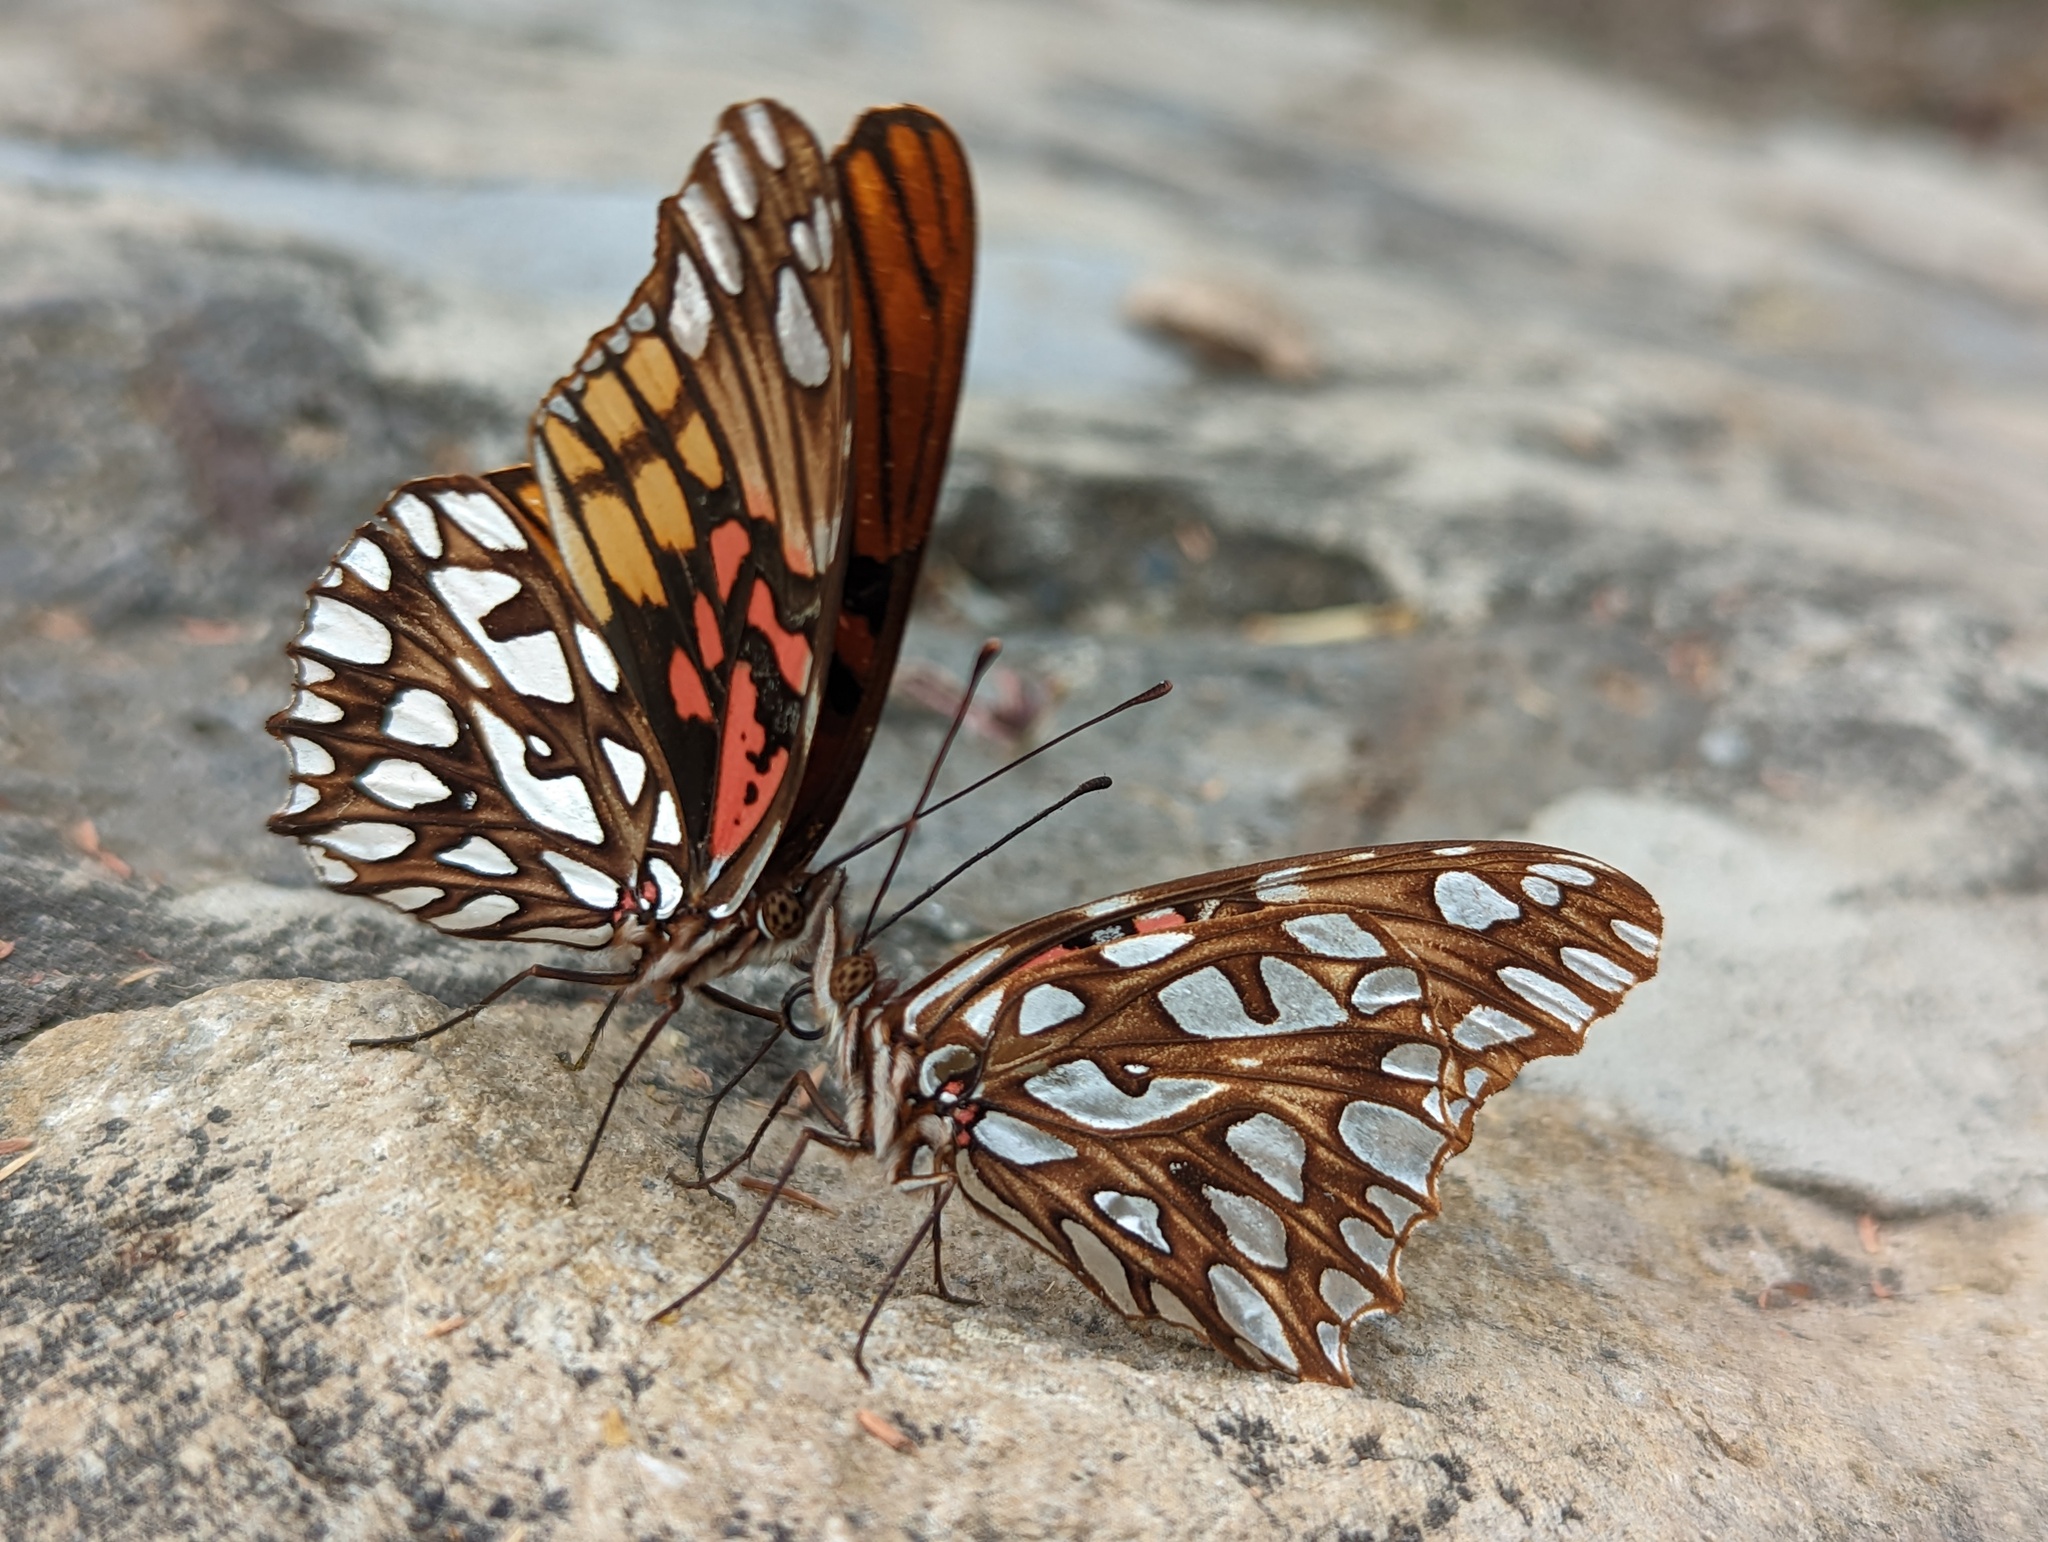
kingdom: Animalia
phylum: Arthropoda
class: Insecta
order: Lepidoptera
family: Nymphalidae
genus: Dione
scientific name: Dione moneta
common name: Mexican silverspot
